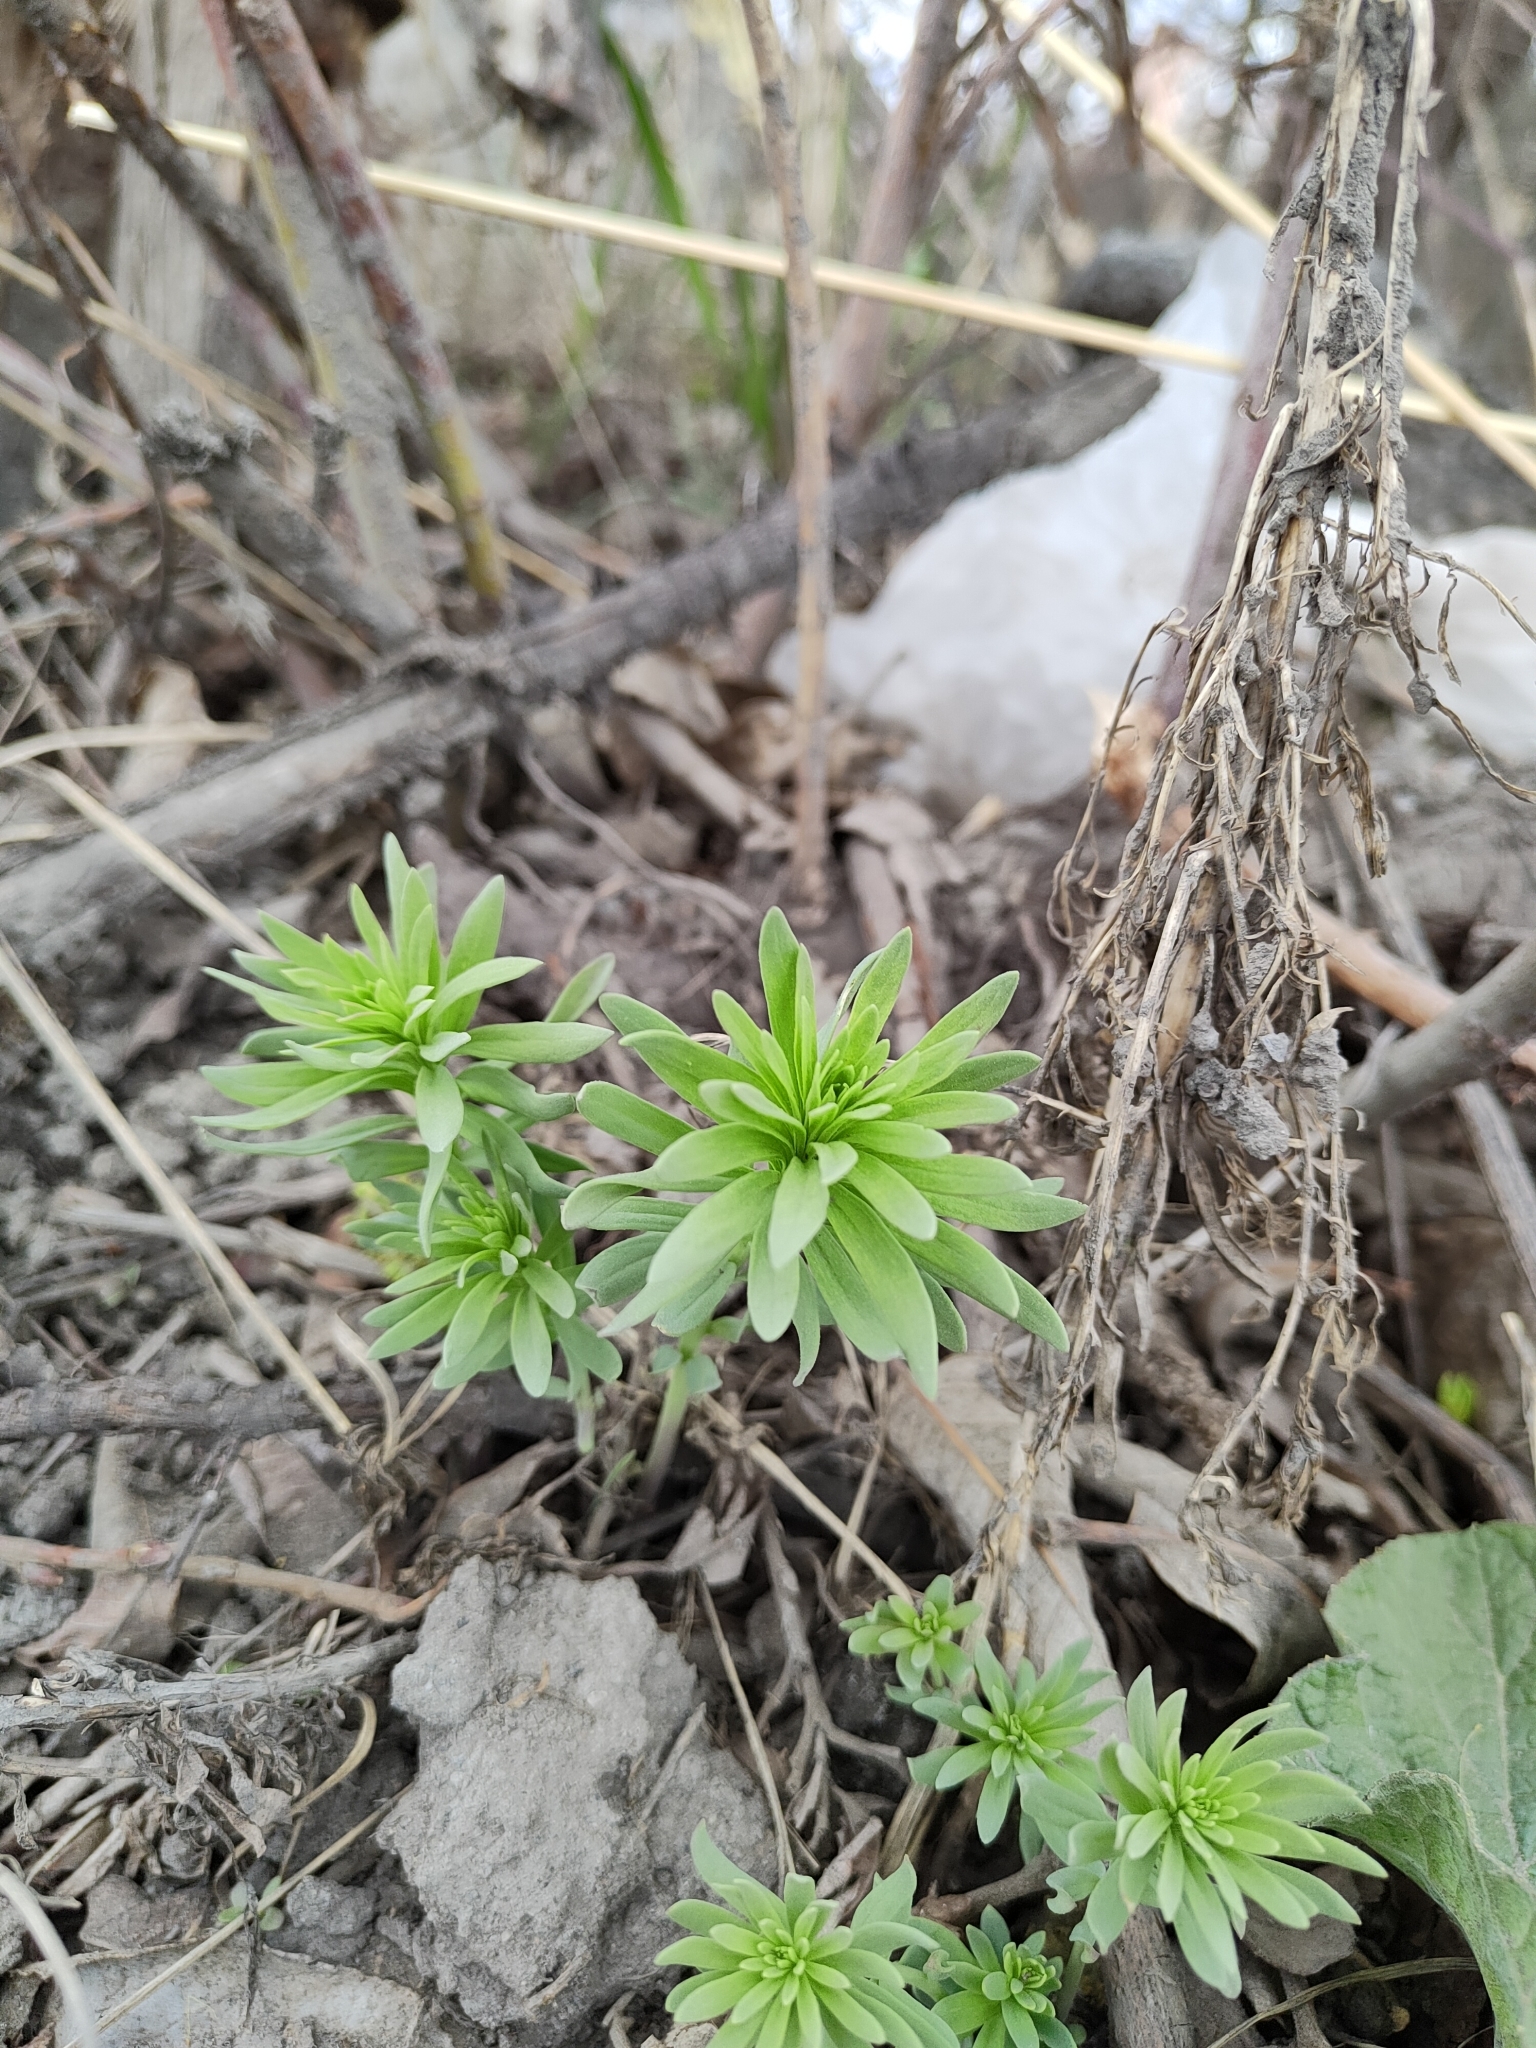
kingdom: Plantae
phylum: Tracheophyta
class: Magnoliopsida
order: Lamiales
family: Plantaginaceae
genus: Linaria
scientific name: Linaria vulgaris
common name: Butter and eggs
